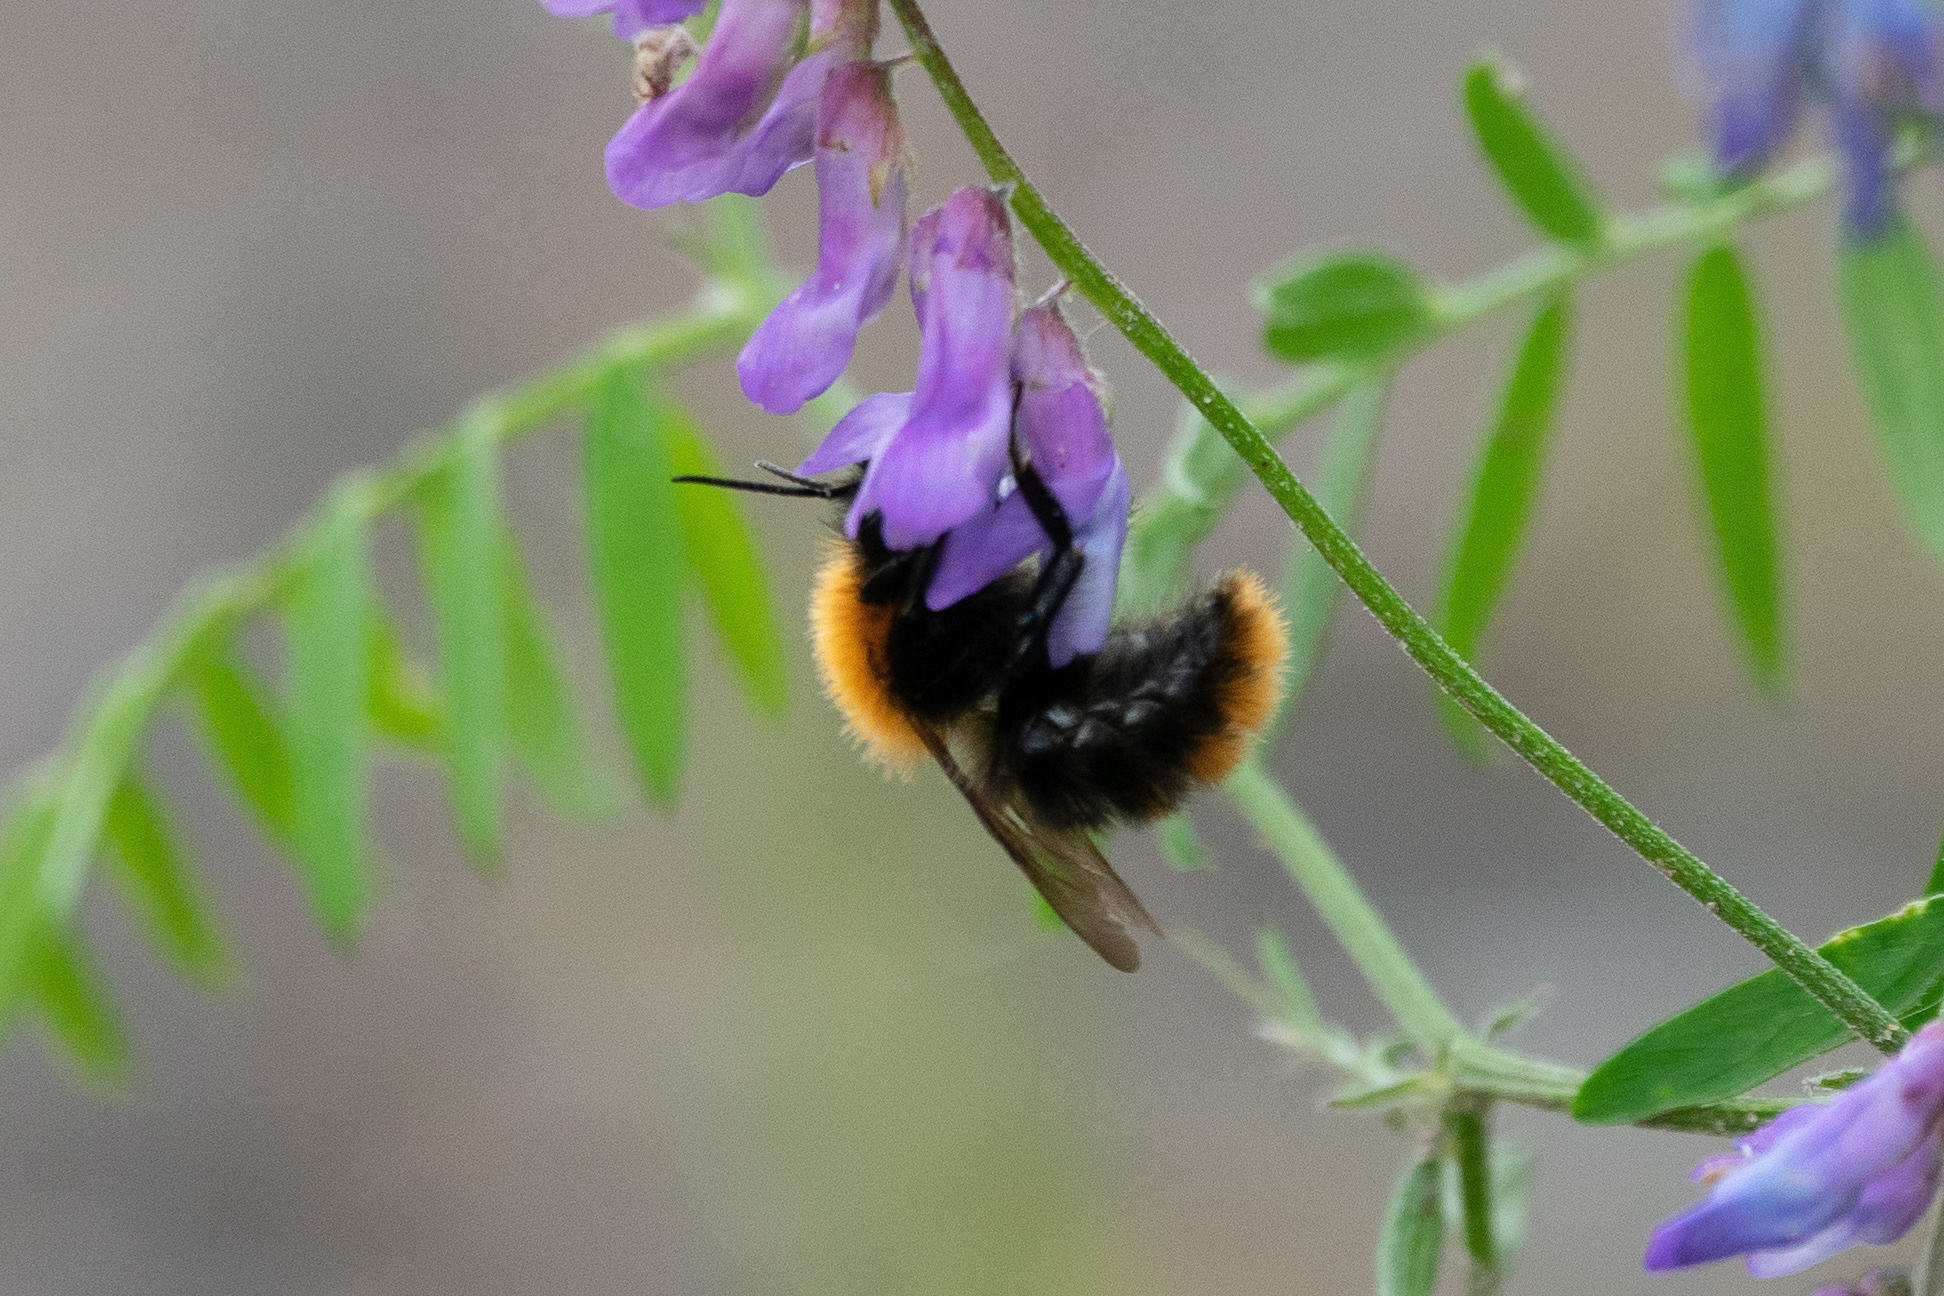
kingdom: Animalia
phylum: Arthropoda
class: Insecta
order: Hymenoptera
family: Apidae
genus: Bombus
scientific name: Bombus pascuorum
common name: Common carder bee
